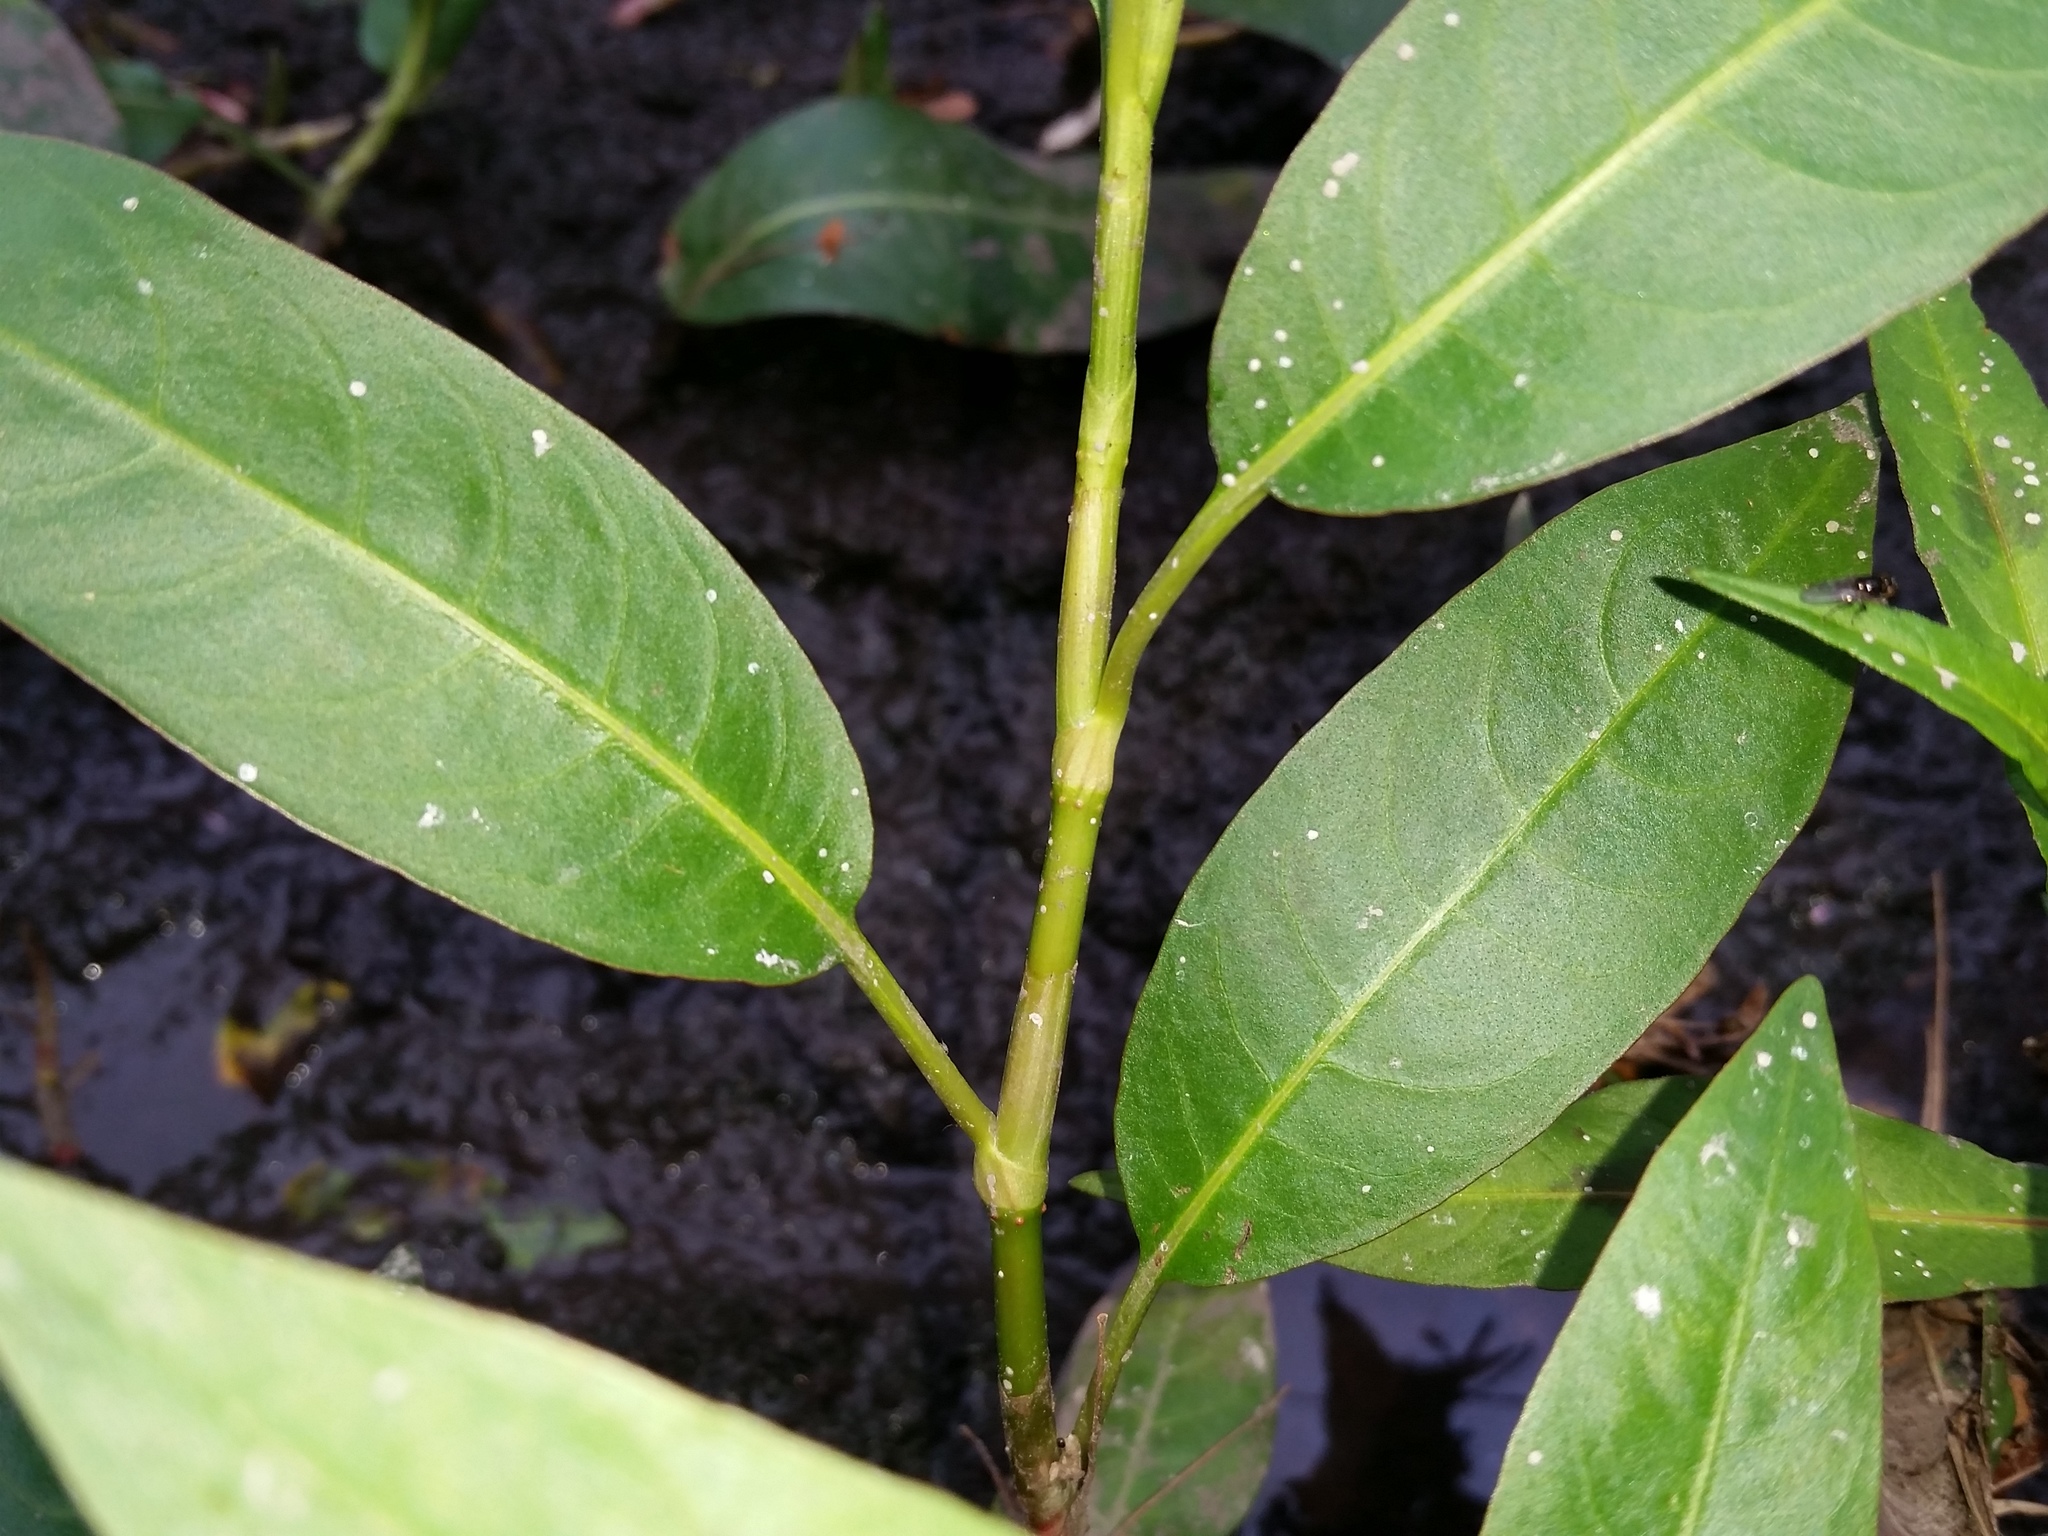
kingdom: Plantae
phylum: Tracheophyta
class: Magnoliopsida
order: Caryophyllales
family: Polygonaceae
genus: Persicaria
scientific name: Persicaria amphibia
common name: Amphibious bistort
